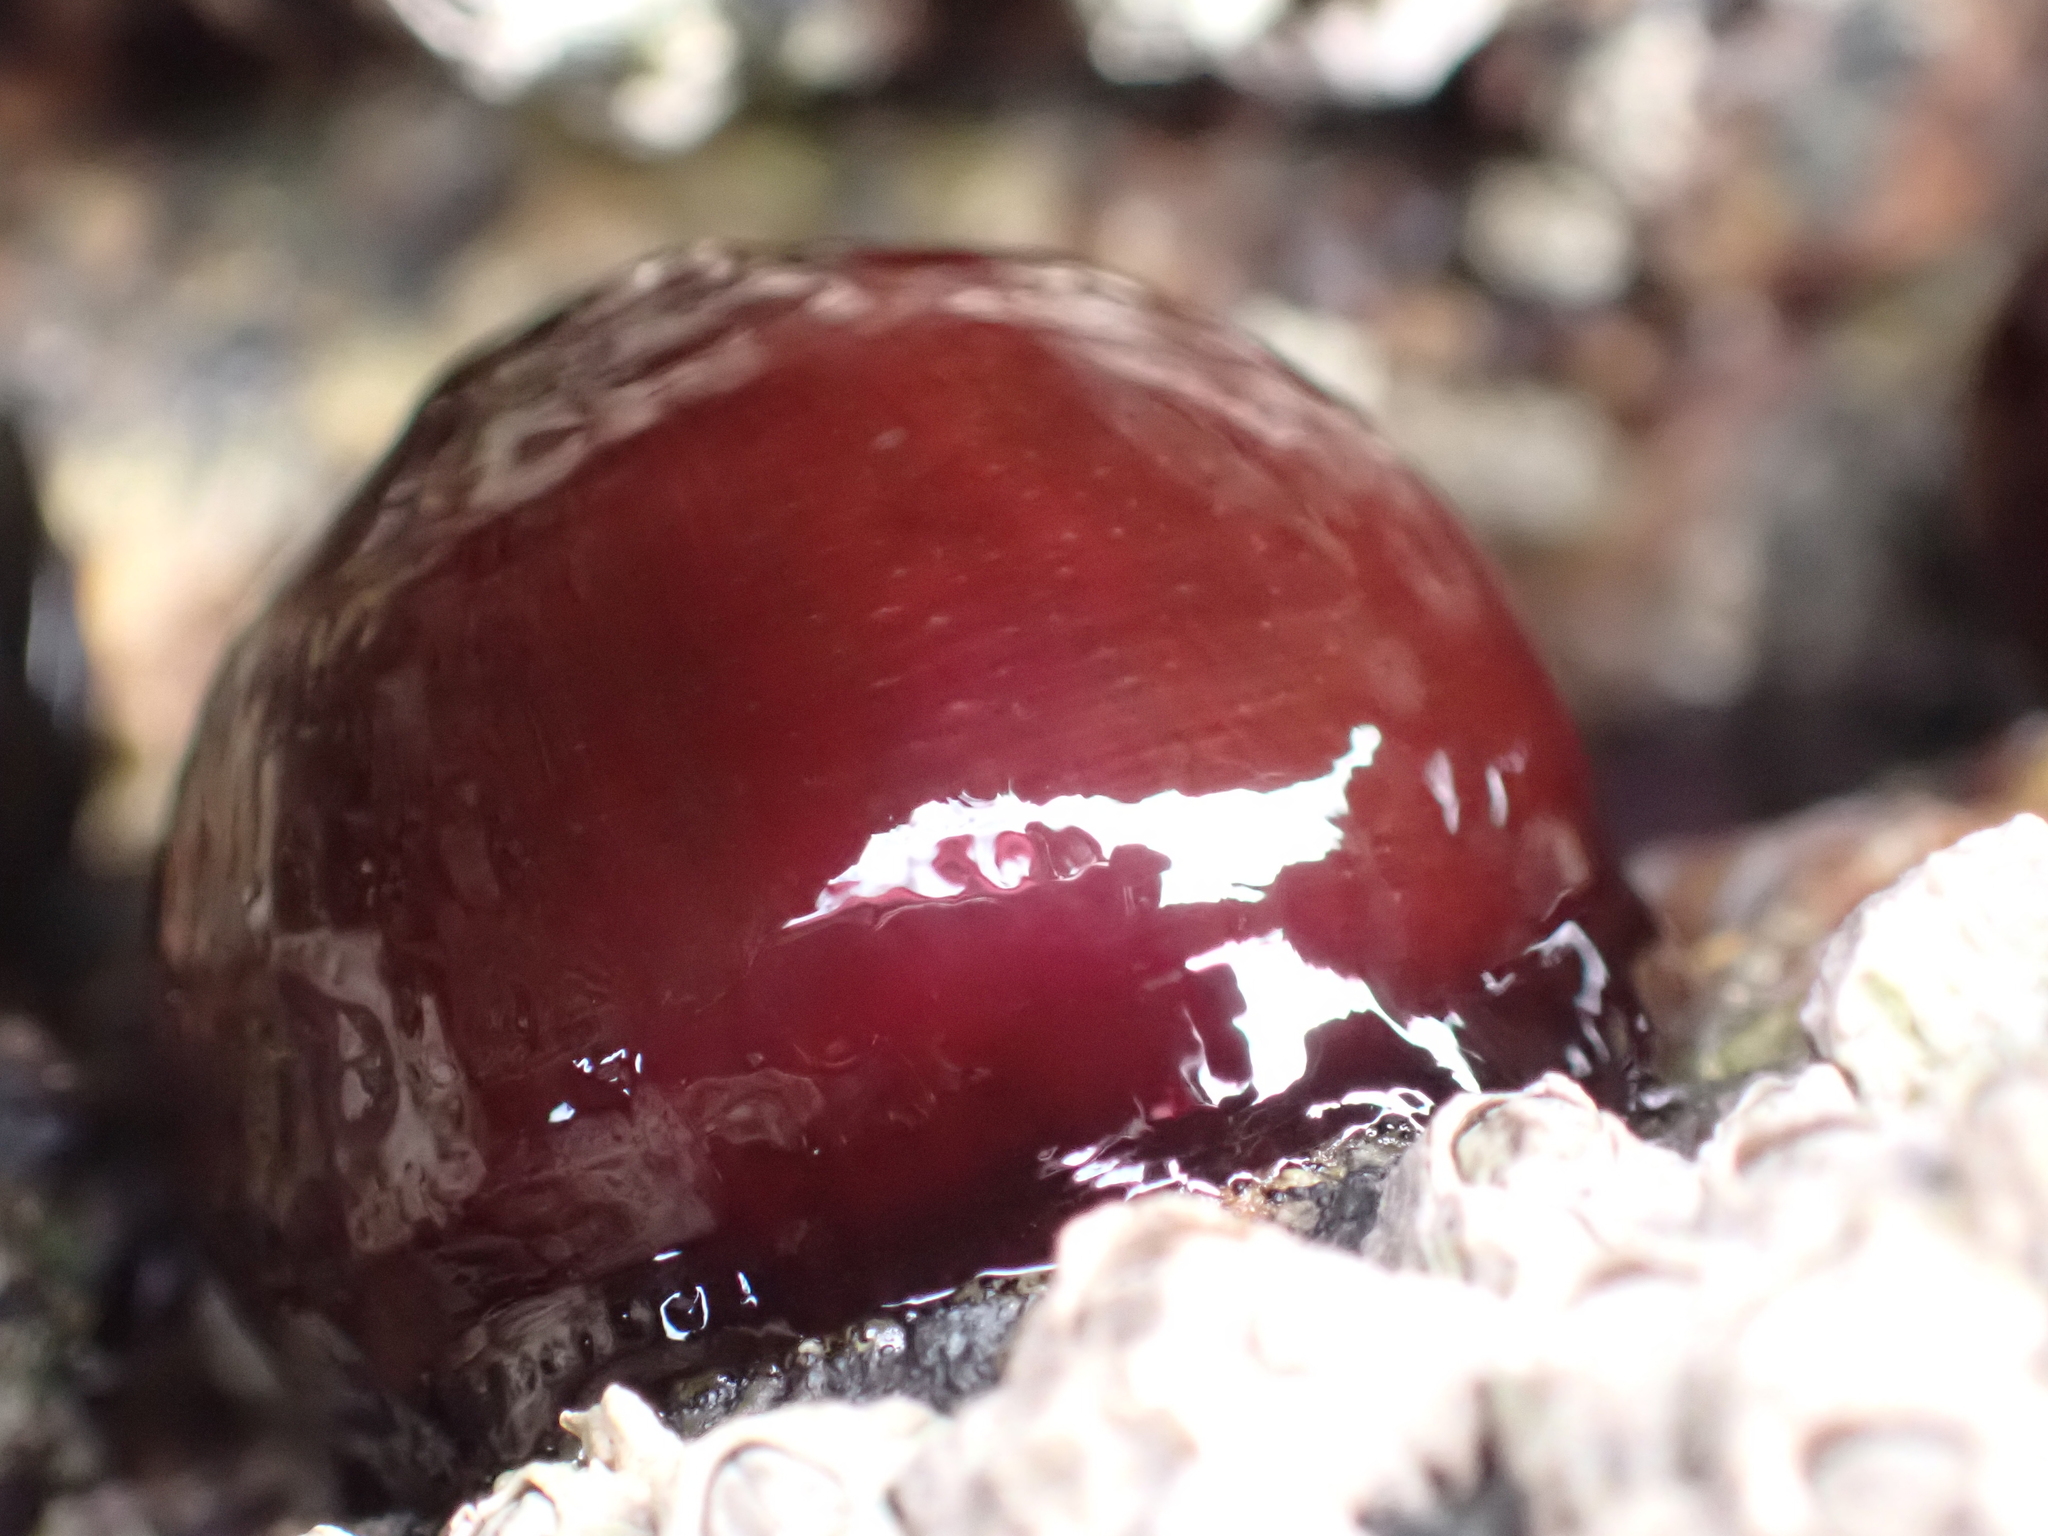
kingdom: Animalia
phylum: Cnidaria
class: Anthozoa
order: Actiniaria
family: Actiniidae
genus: Actinia
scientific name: Actinia equina
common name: Beadlet anemone
